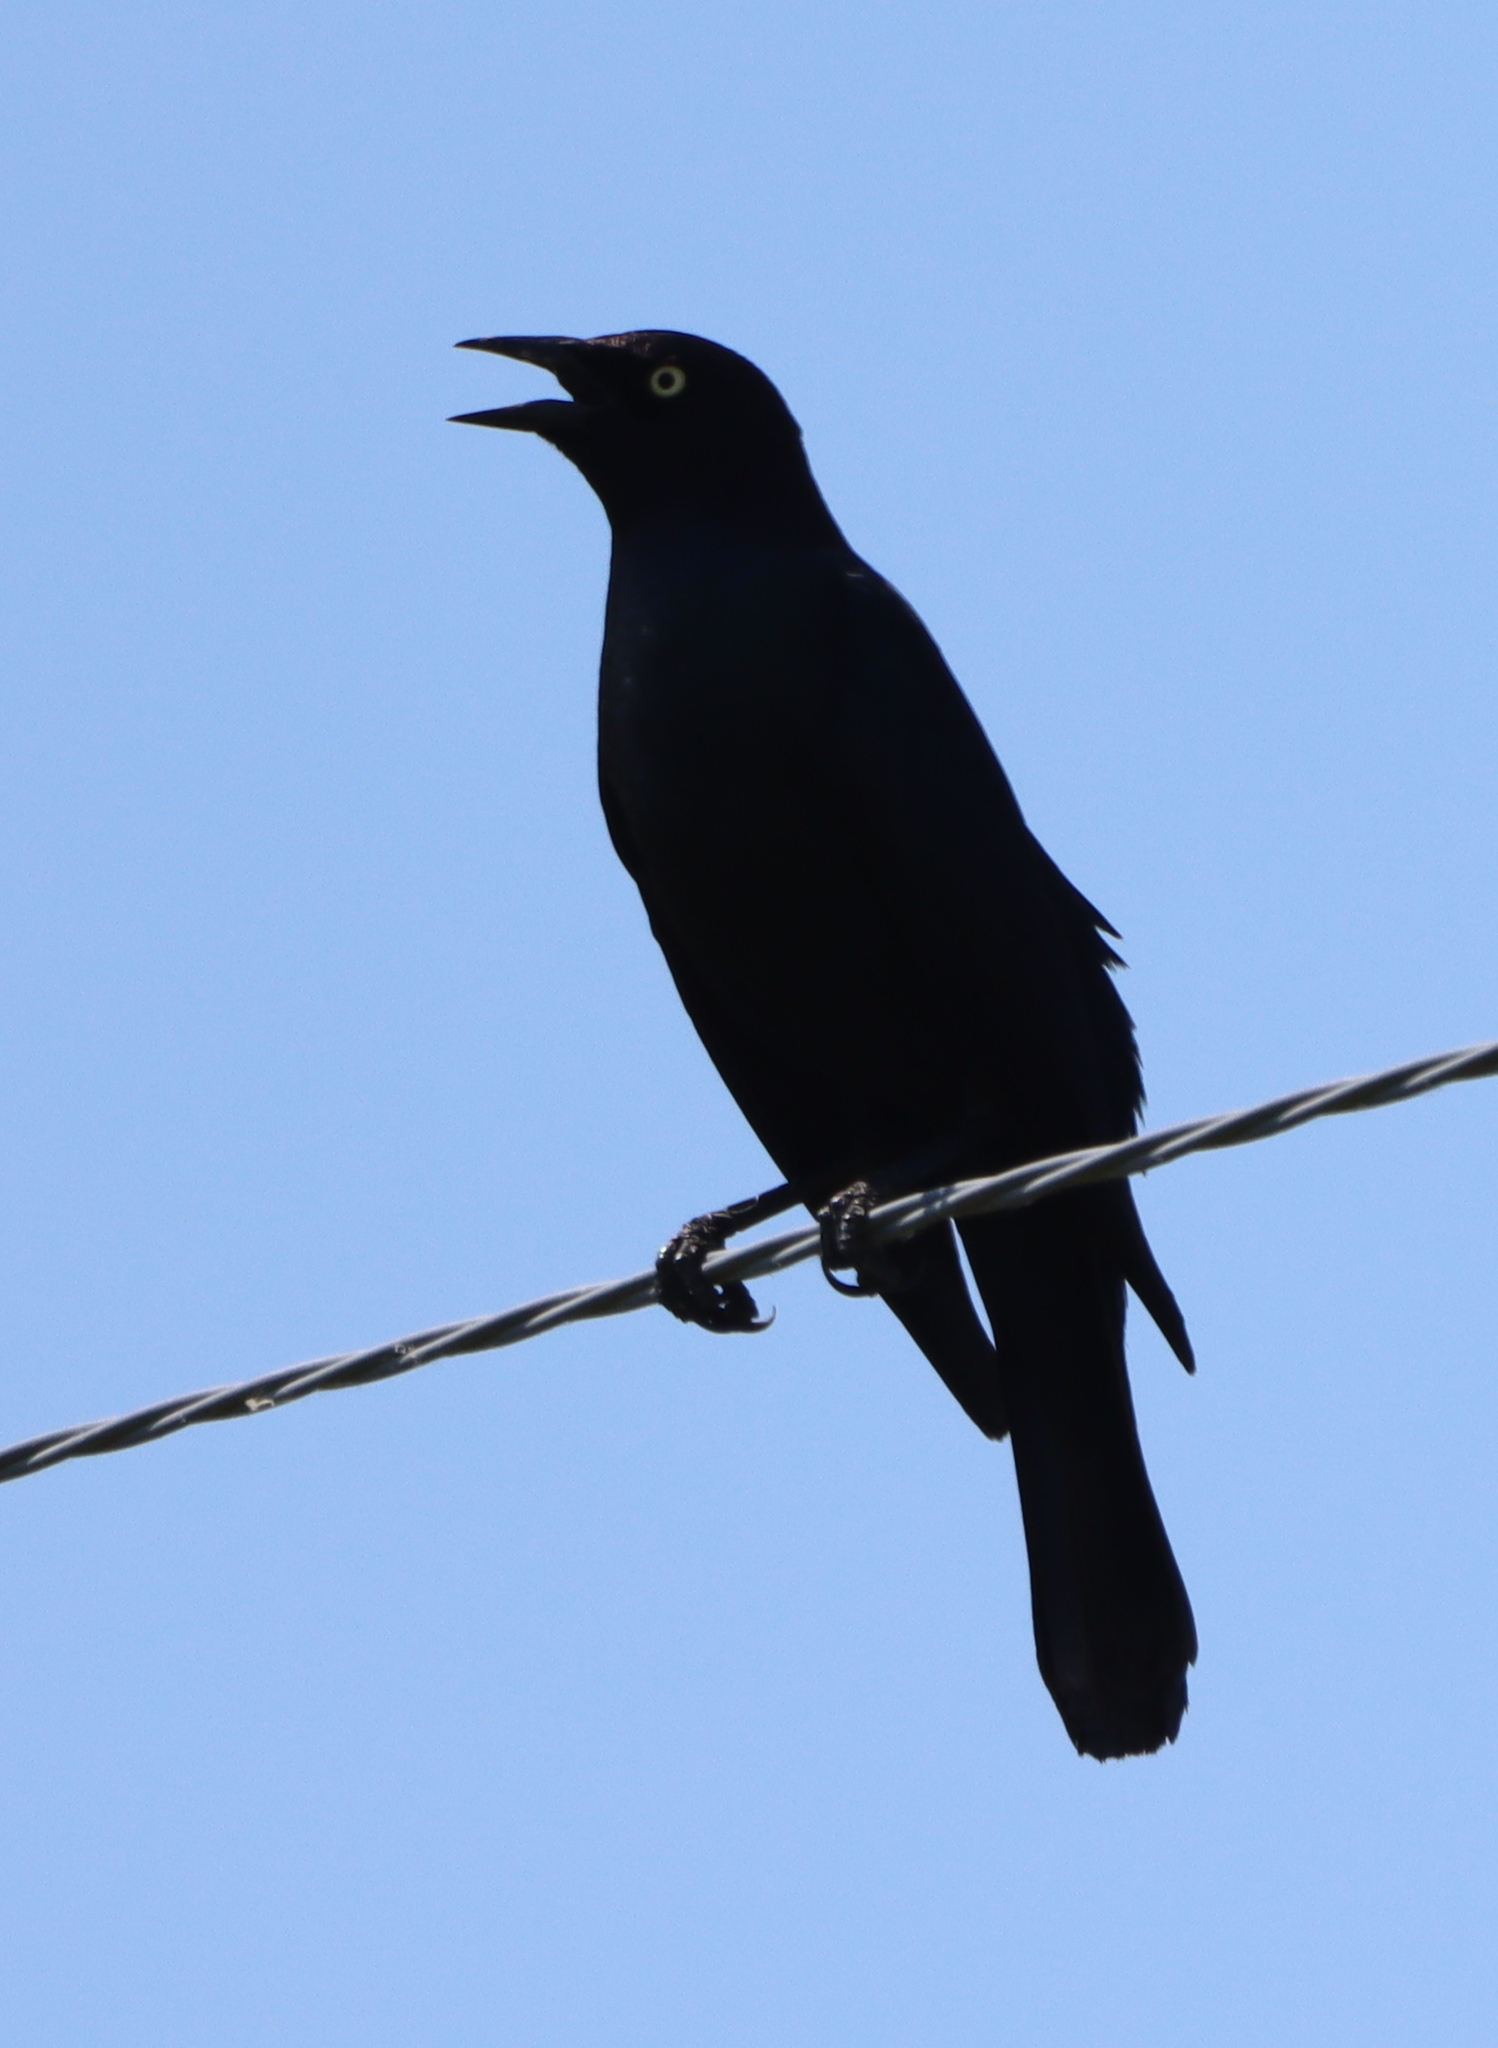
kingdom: Animalia
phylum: Chordata
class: Aves
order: Passeriformes
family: Icteridae
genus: Quiscalus
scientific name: Quiscalus quiscula
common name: Common grackle
